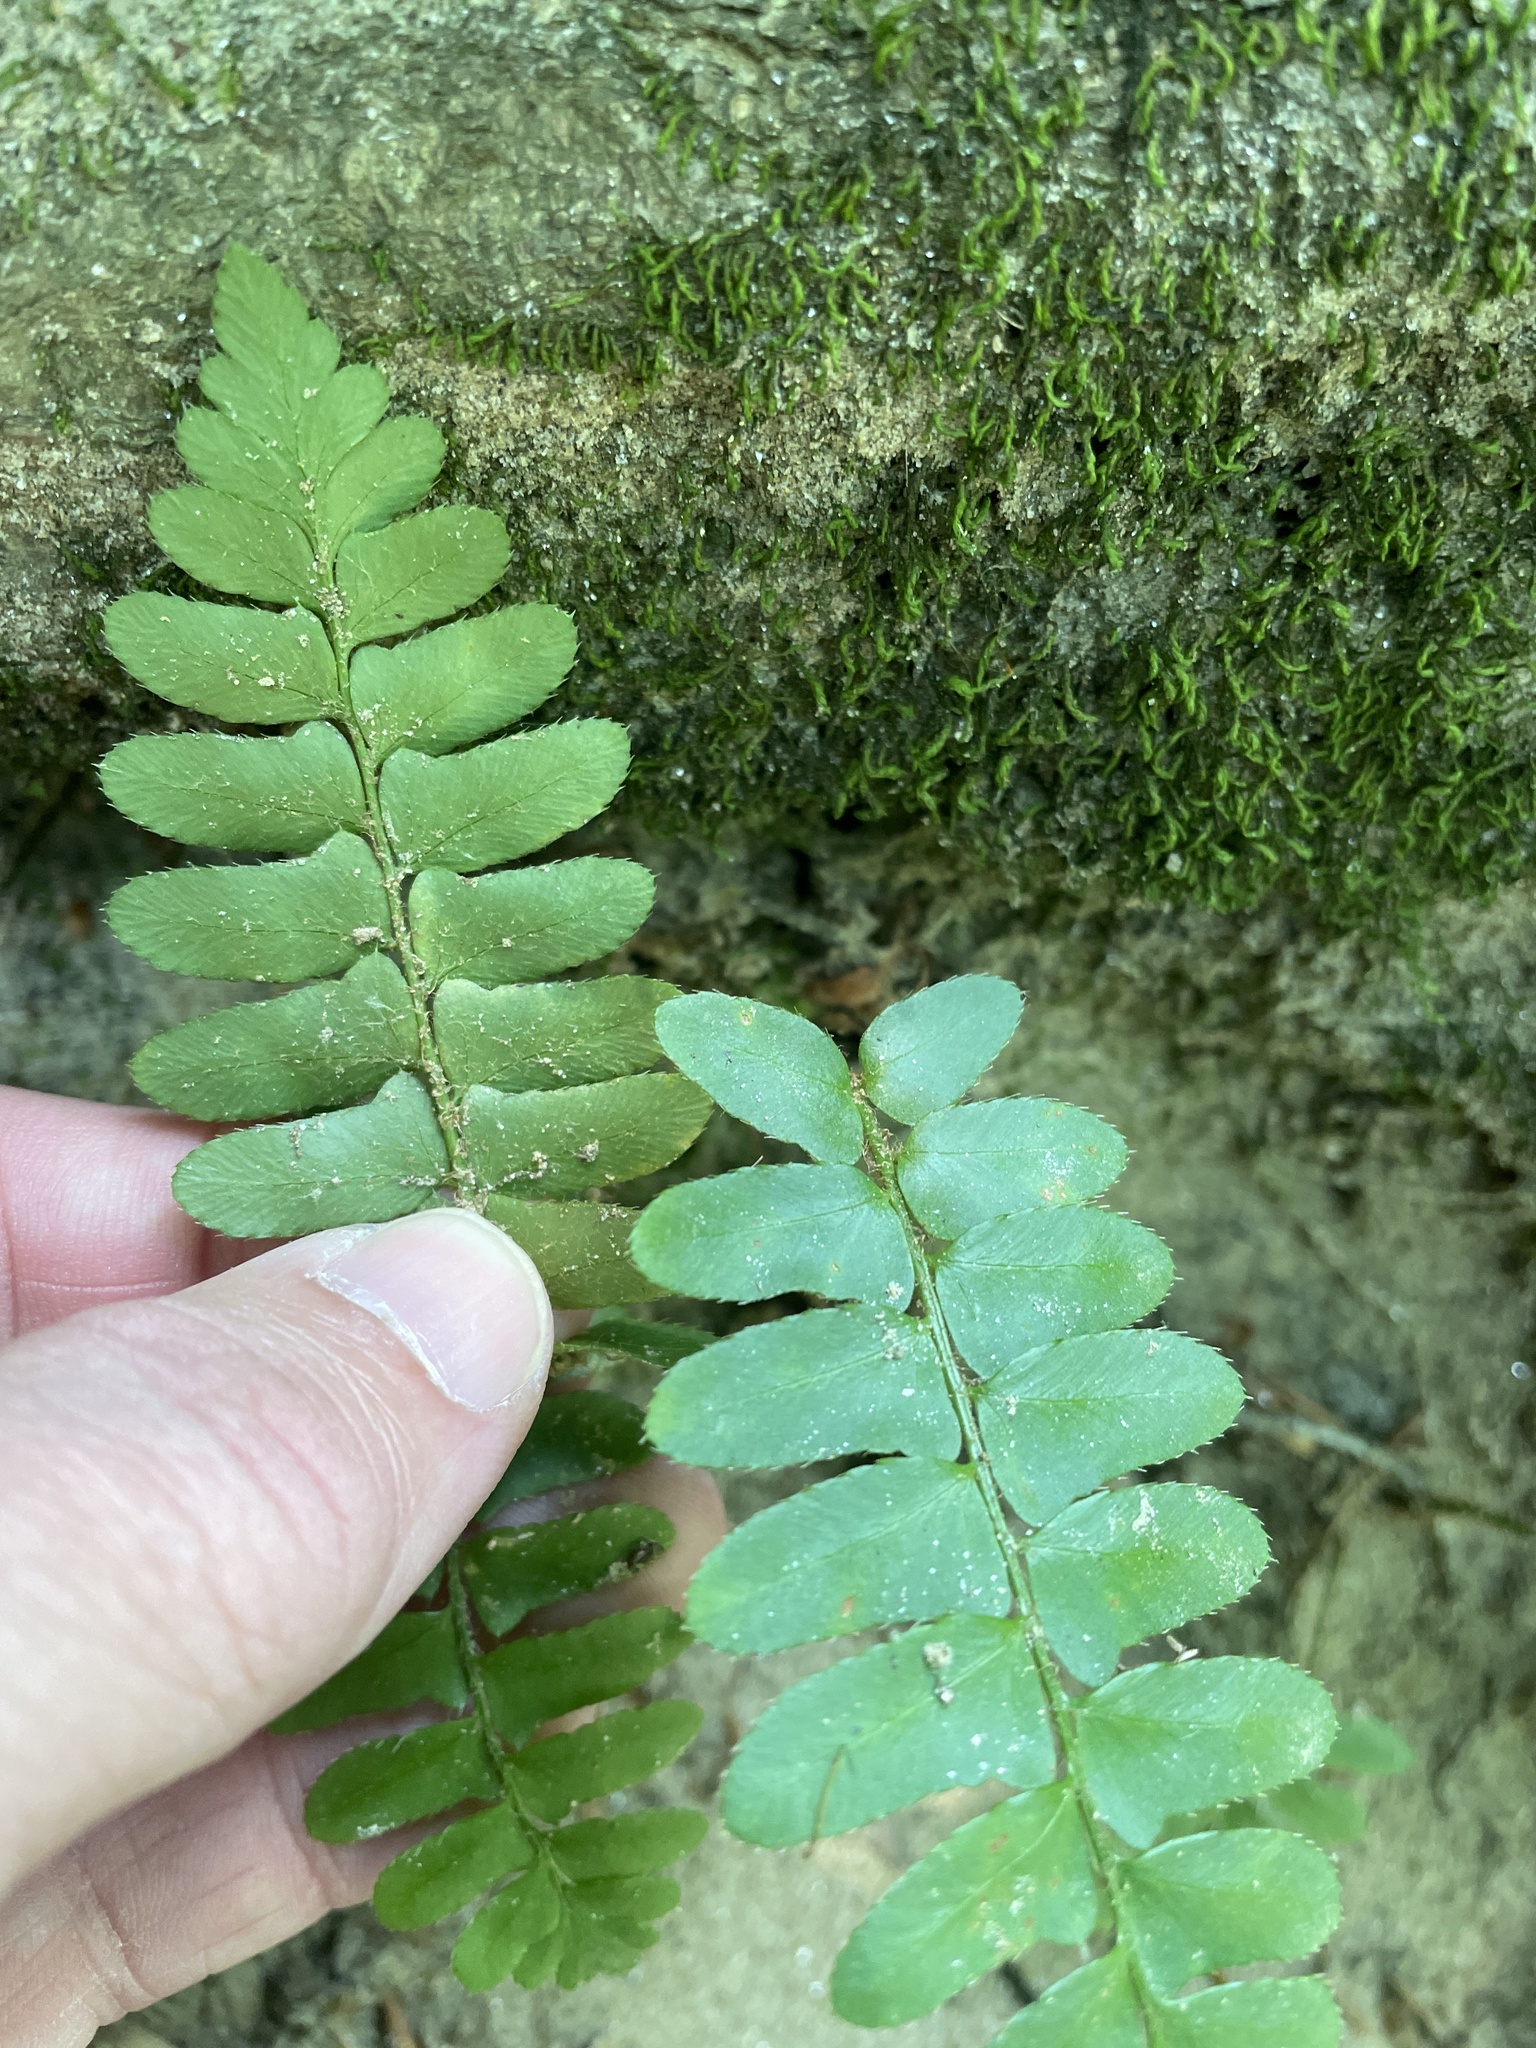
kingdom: Plantae
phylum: Tracheophyta
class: Polypodiopsida
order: Polypodiales
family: Dryopteridaceae
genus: Polystichum
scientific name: Polystichum acrostichoides
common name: Christmas fern
